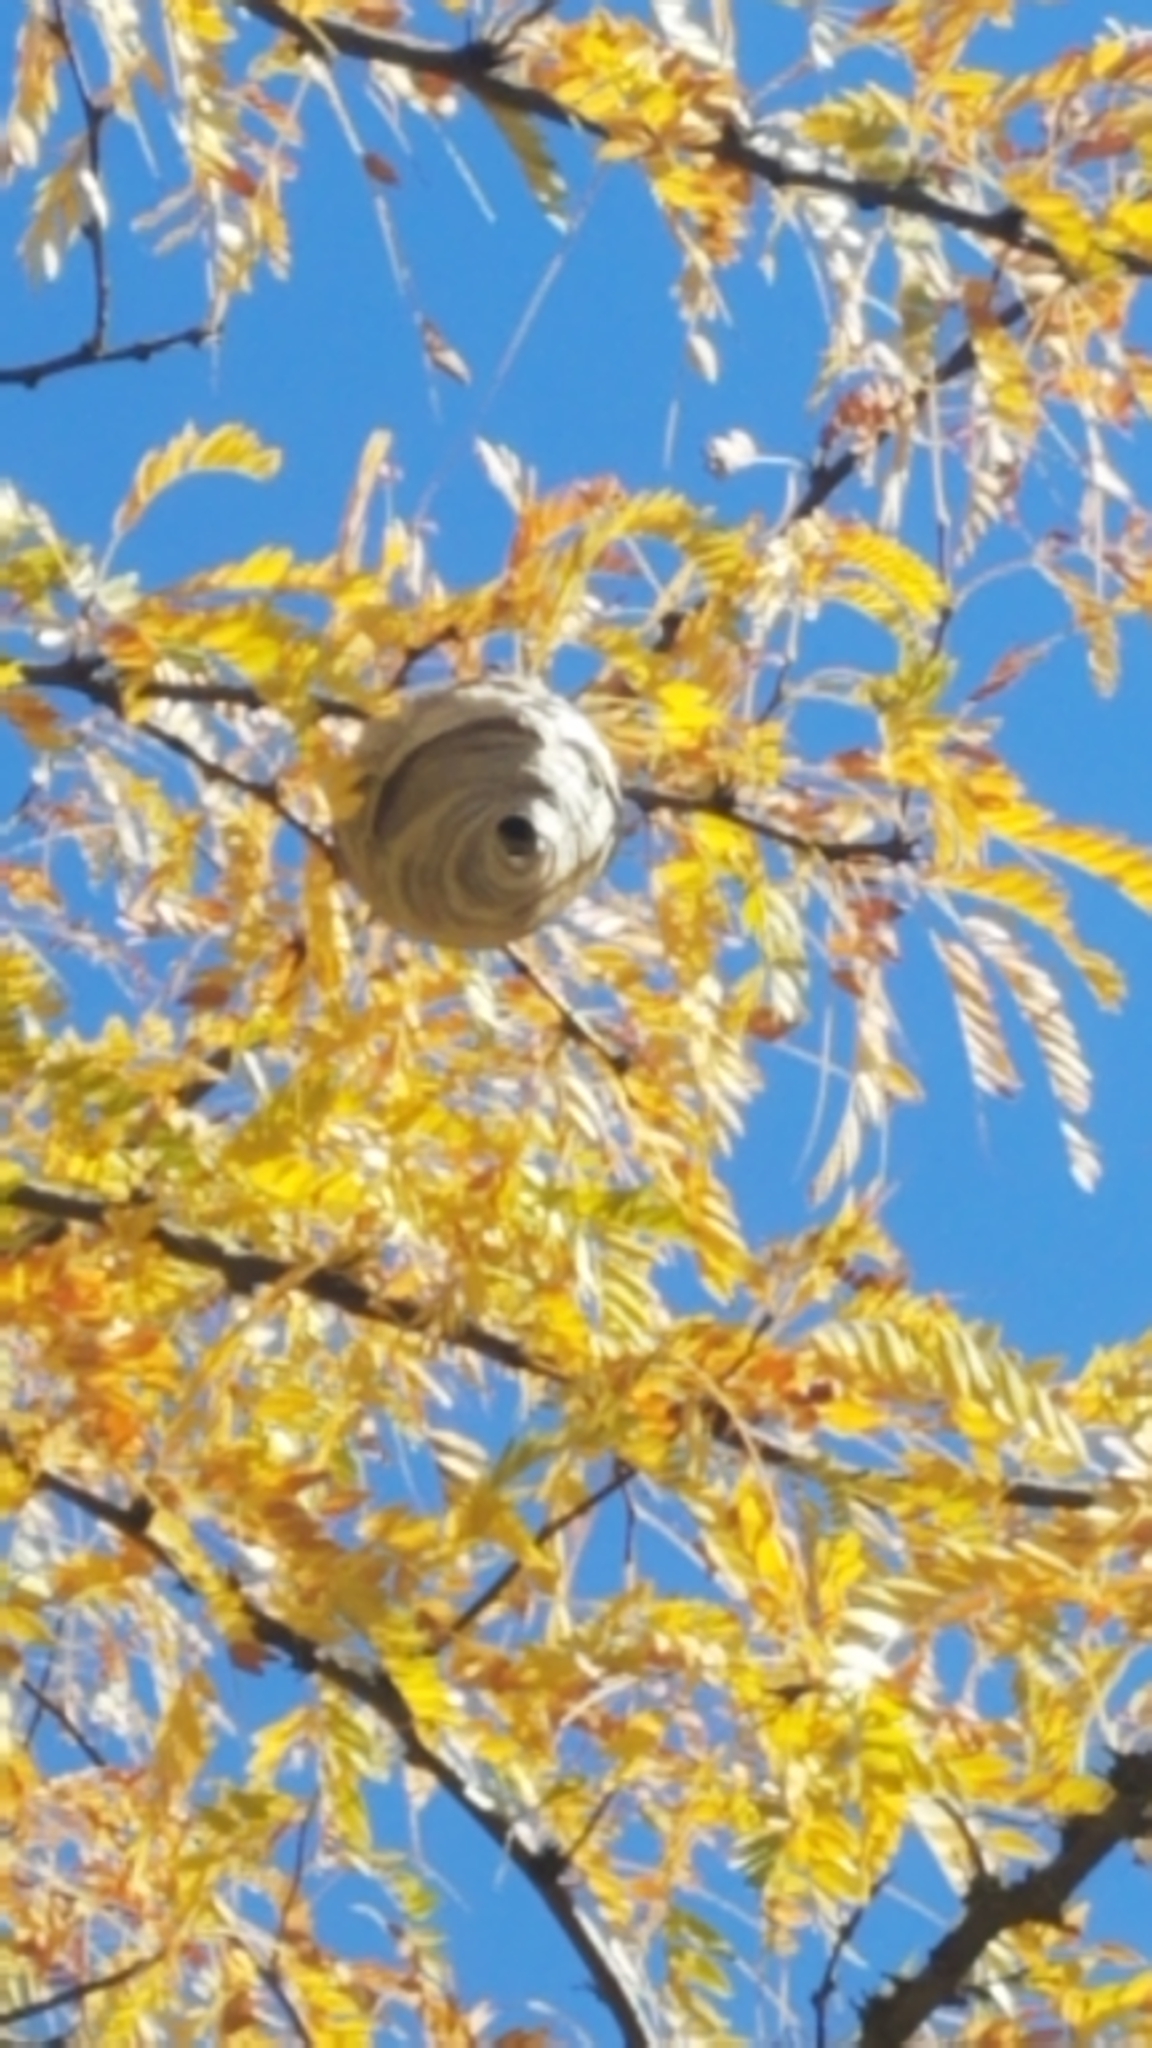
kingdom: Animalia
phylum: Arthropoda
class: Insecta
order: Hymenoptera
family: Vespidae
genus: Dolichovespula
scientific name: Dolichovespula
